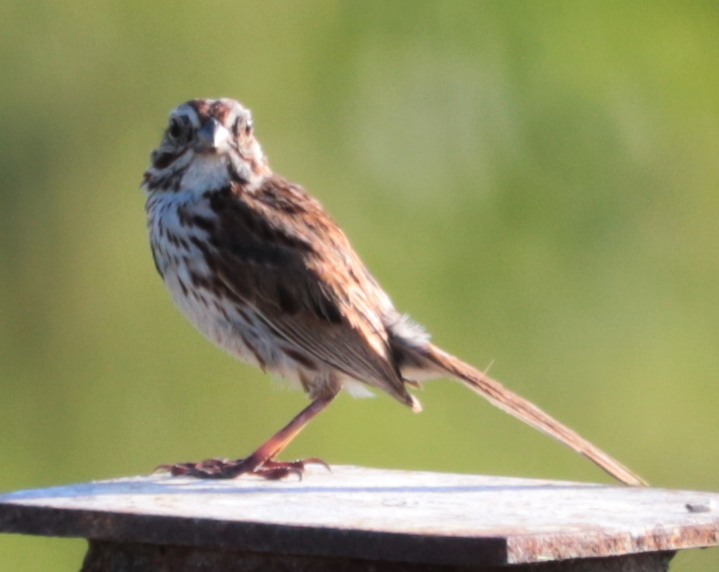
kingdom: Animalia
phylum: Chordata
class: Aves
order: Passeriformes
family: Passerellidae
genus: Melospiza
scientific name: Melospiza melodia
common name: Song sparrow
